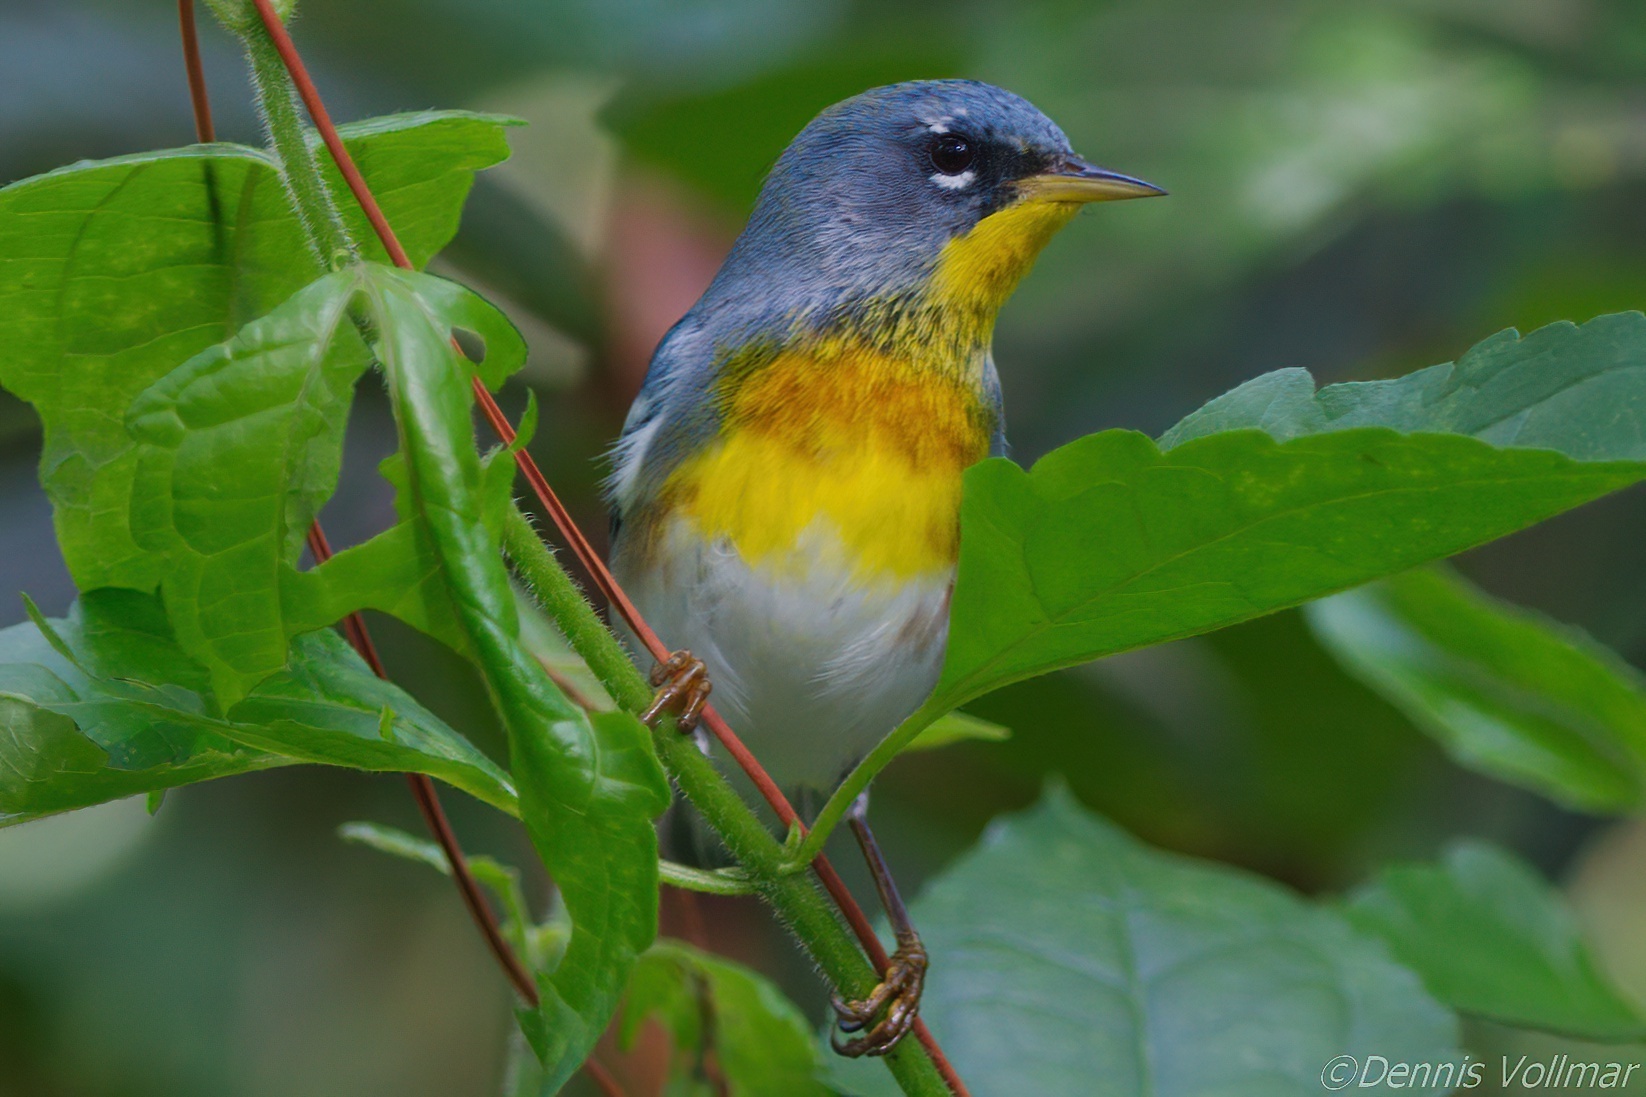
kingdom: Animalia
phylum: Chordata
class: Aves
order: Passeriformes
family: Parulidae
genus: Setophaga
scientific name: Setophaga americana
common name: Northern parula
